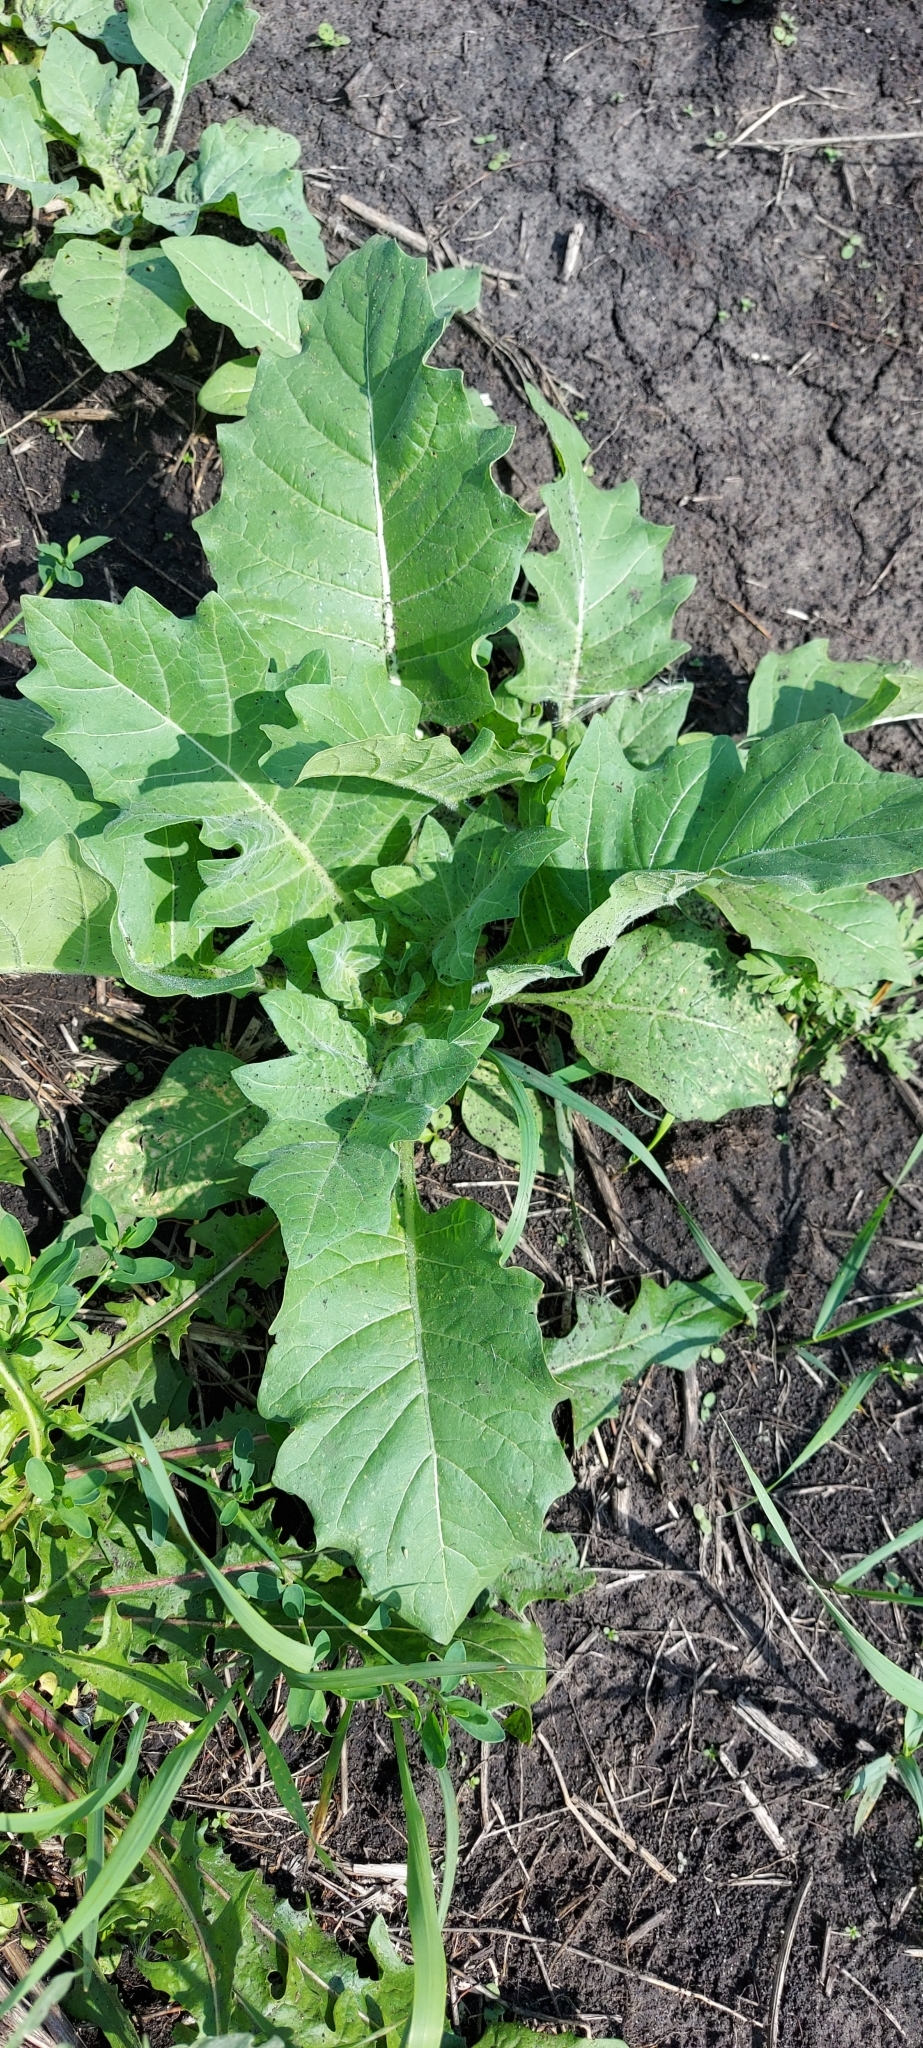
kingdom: Plantae
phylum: Tracheophyta
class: Magnoliopsida
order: Solanales
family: Solanaceae
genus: Hyoscyamus
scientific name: Hyoscyamus niger
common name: Henbane
